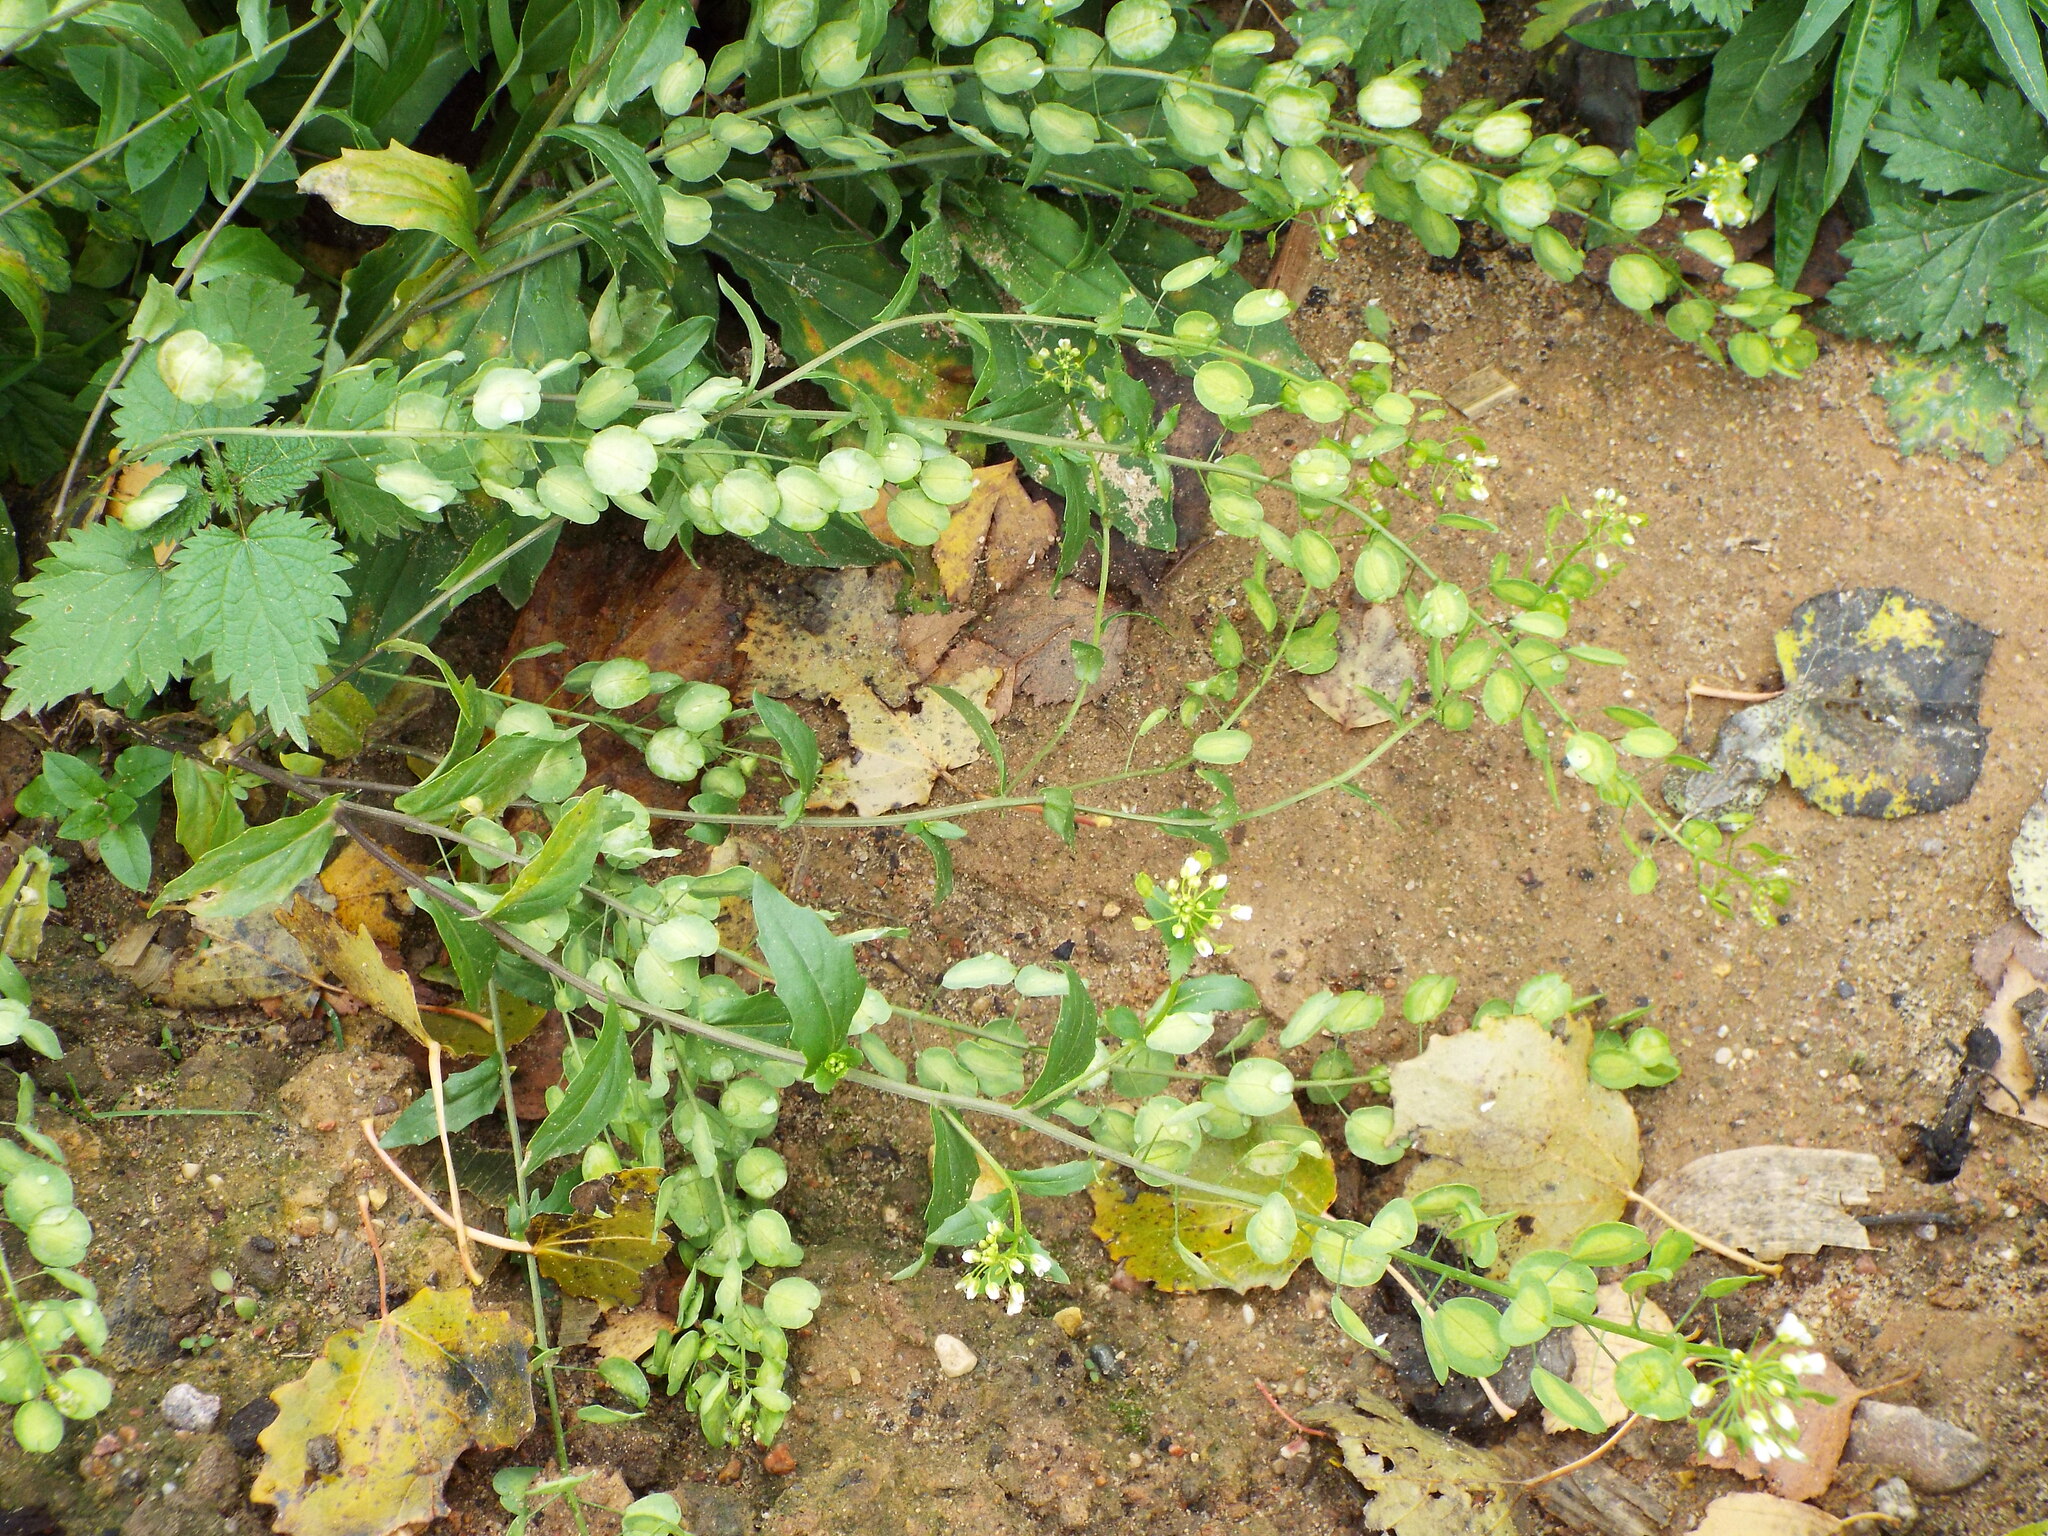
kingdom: Plantae
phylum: Tracheophyta
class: Magnoliopsida
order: Brassicales
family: Brassicaceae
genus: Thlaspi
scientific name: Thlaspi arvense
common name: Field pennycress
